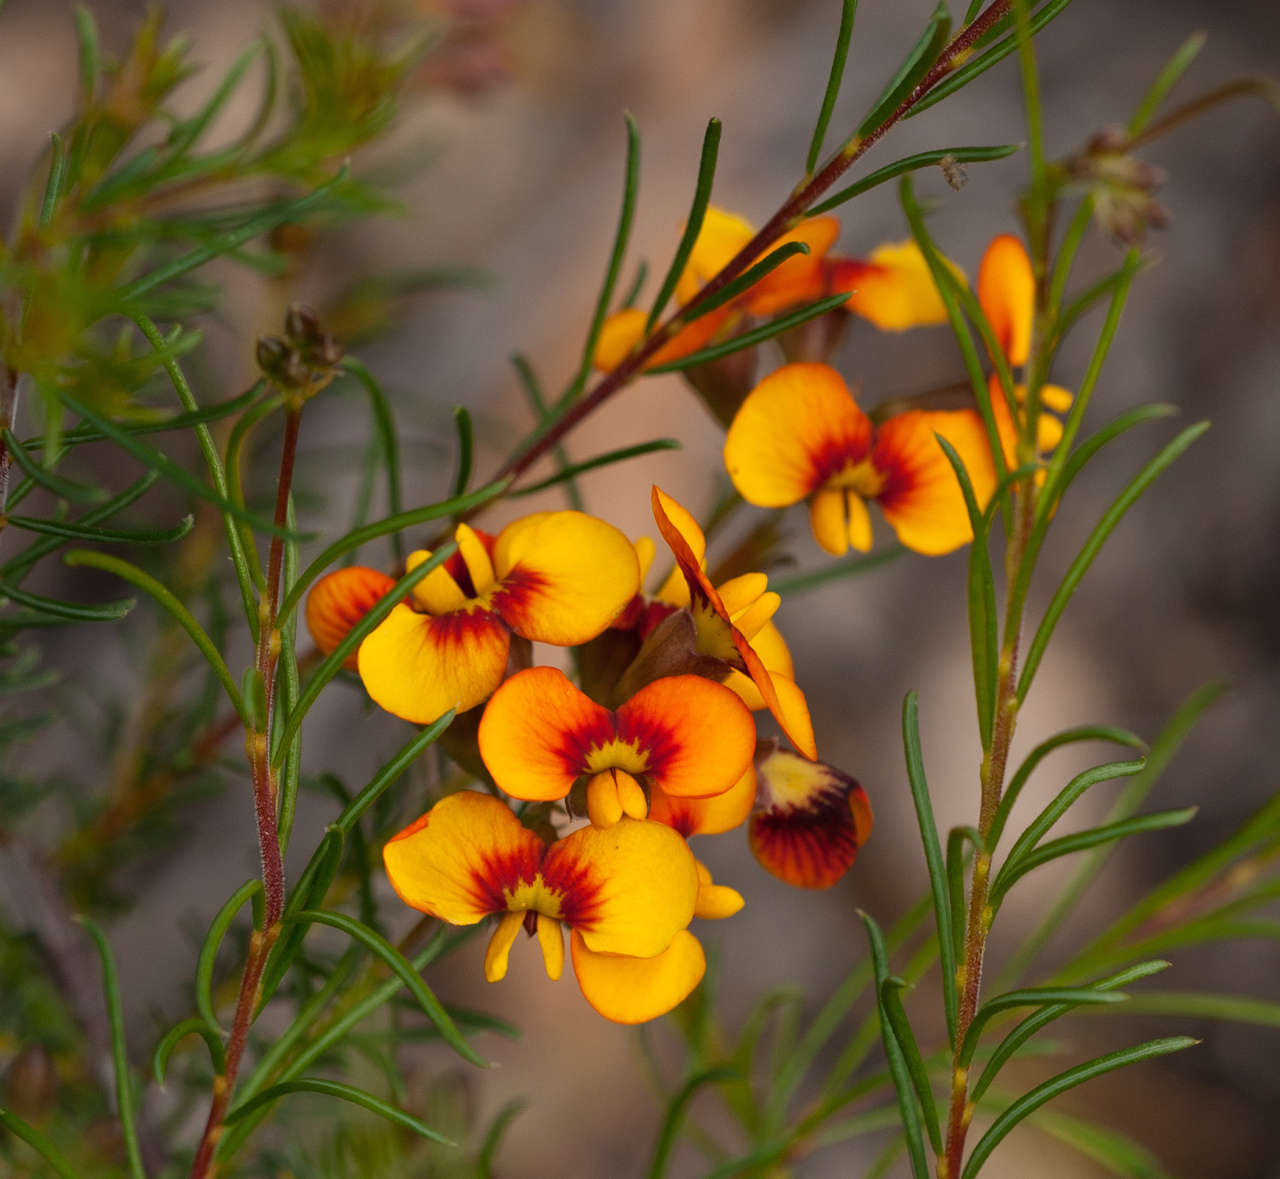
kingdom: Plantae
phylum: Tracheophyta
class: Magnoliopsida
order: Fabales
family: Fabaceae
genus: Dillwynia
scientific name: Dillwynia glaberrima
